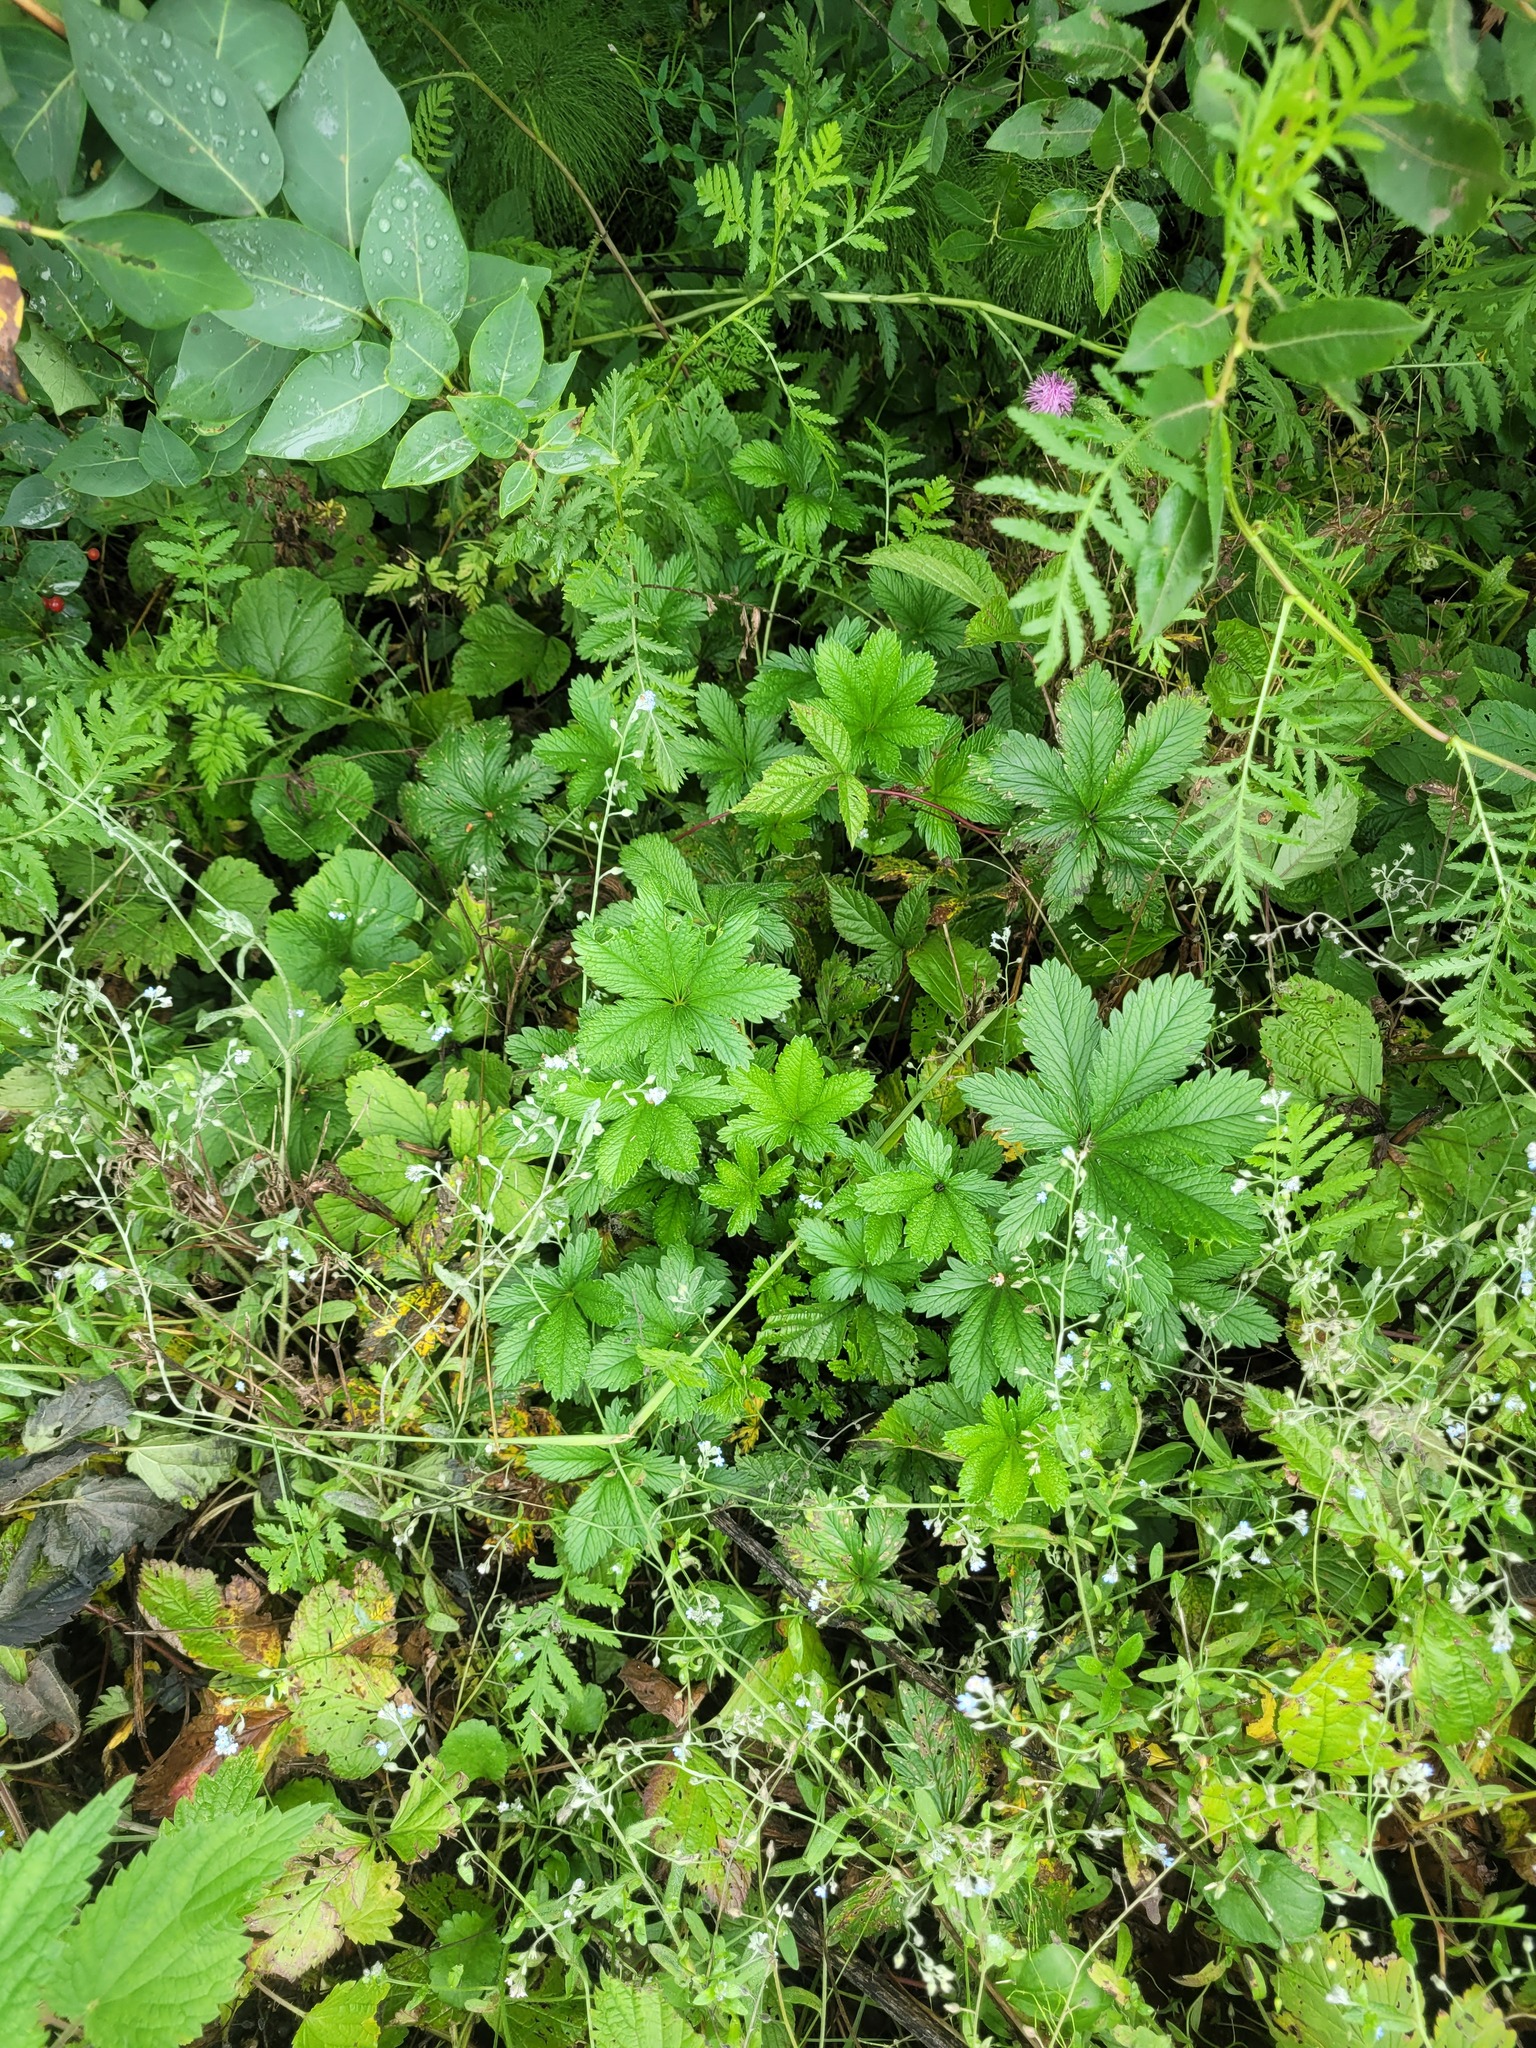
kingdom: Plantae
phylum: Tracheophyta
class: Magnoliopsida
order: Rosales
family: Rosaceae
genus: Potentilla
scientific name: Potentilla thuringiaca
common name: European cinquefoil
